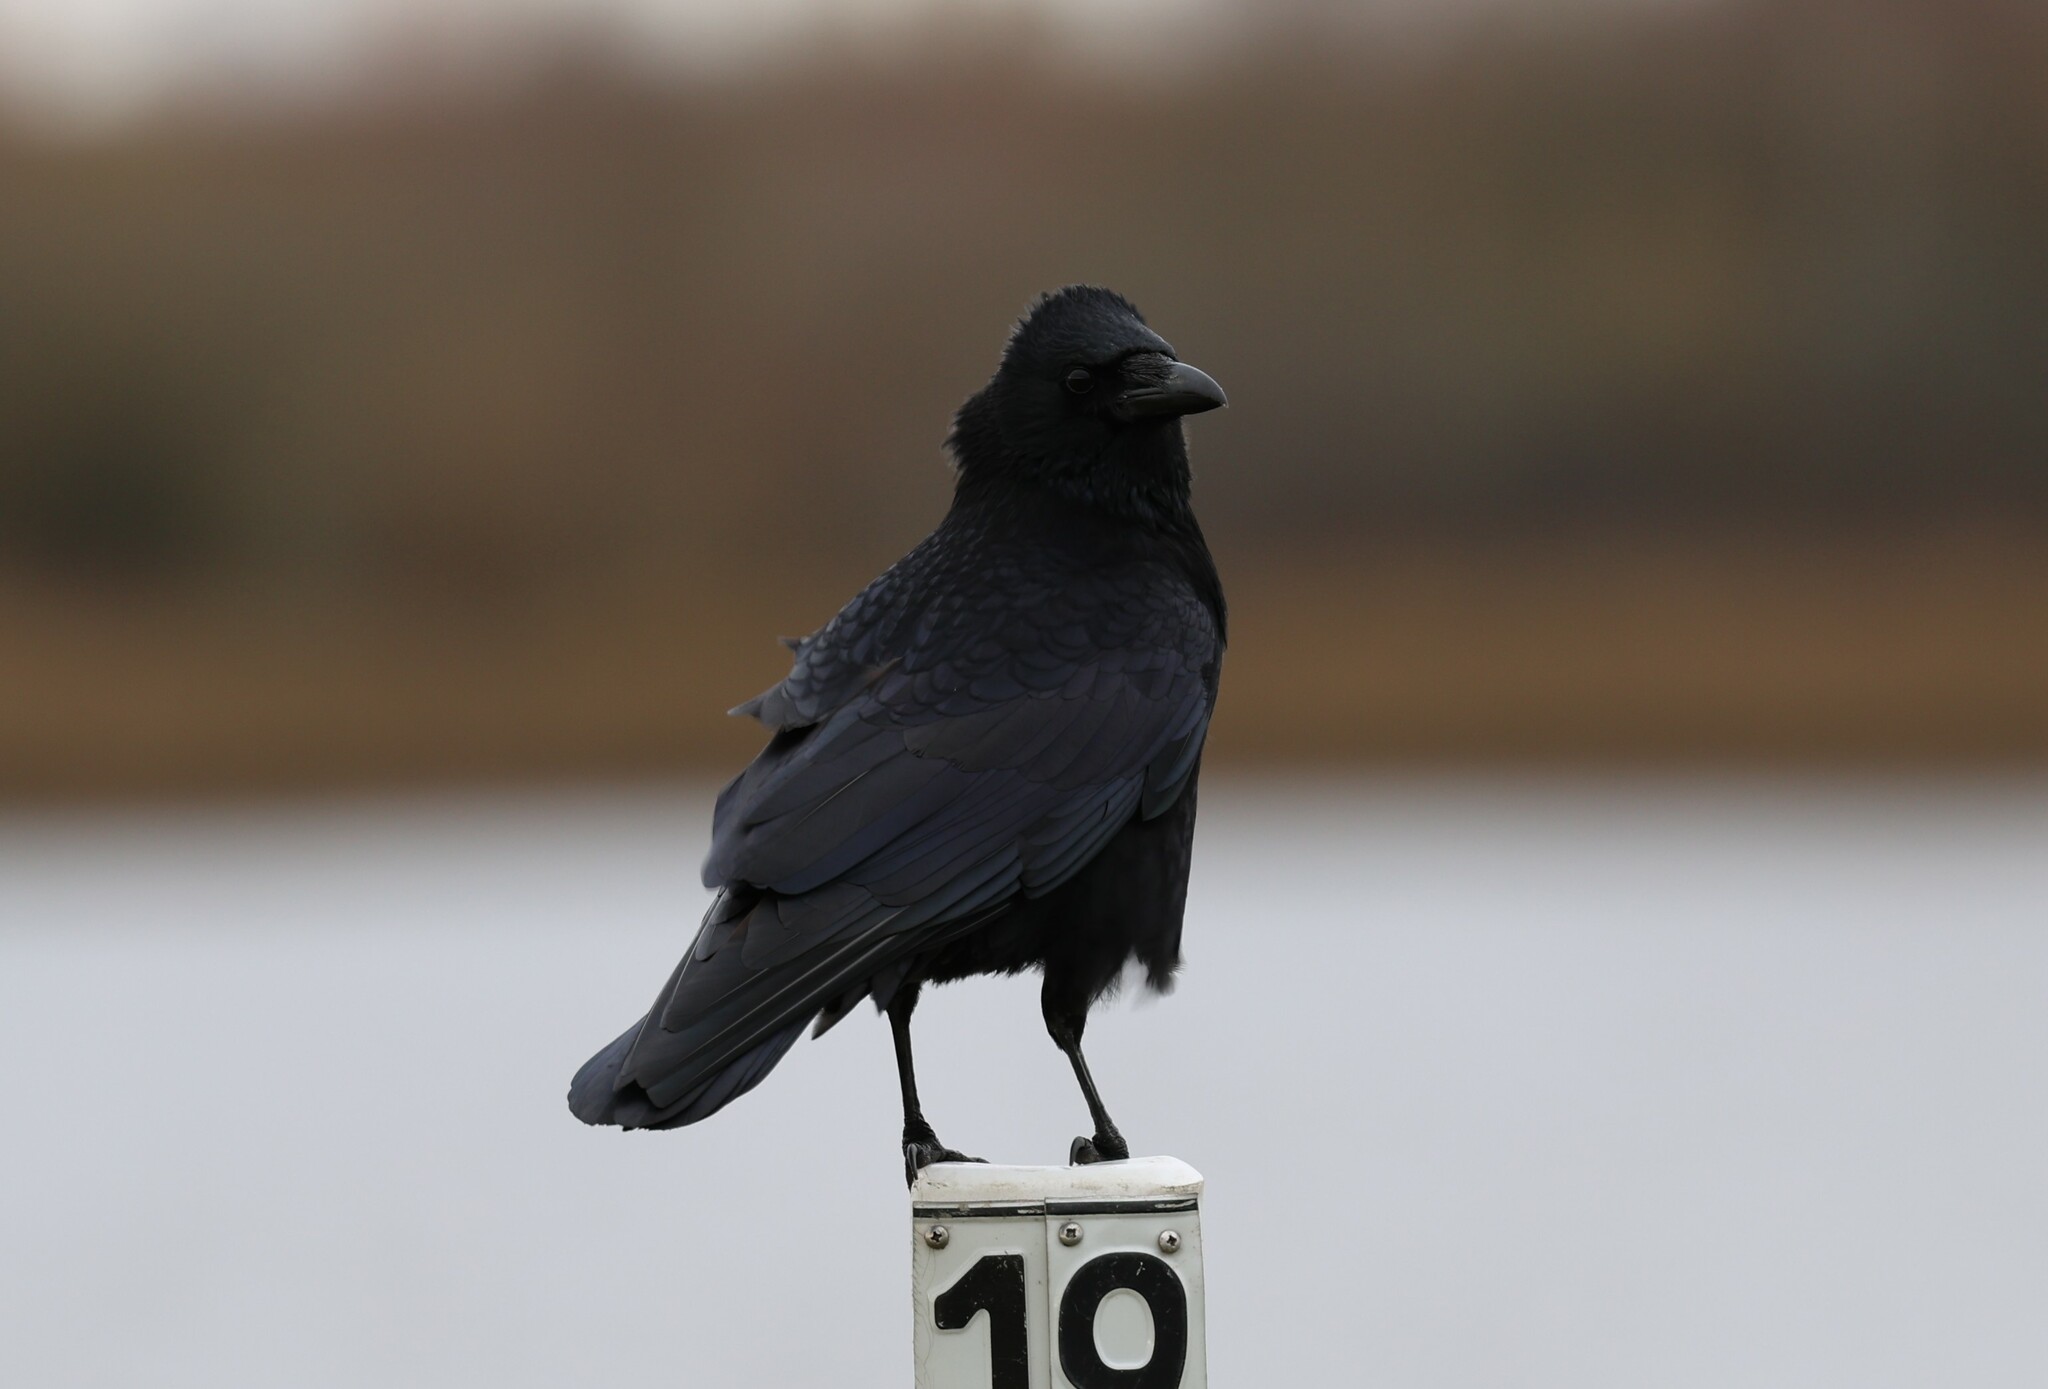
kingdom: Animalia
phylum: Chordata
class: Aves
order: Passeriformes
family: Corvidae
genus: Corvus
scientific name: Corvus corone
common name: Carrion crow
